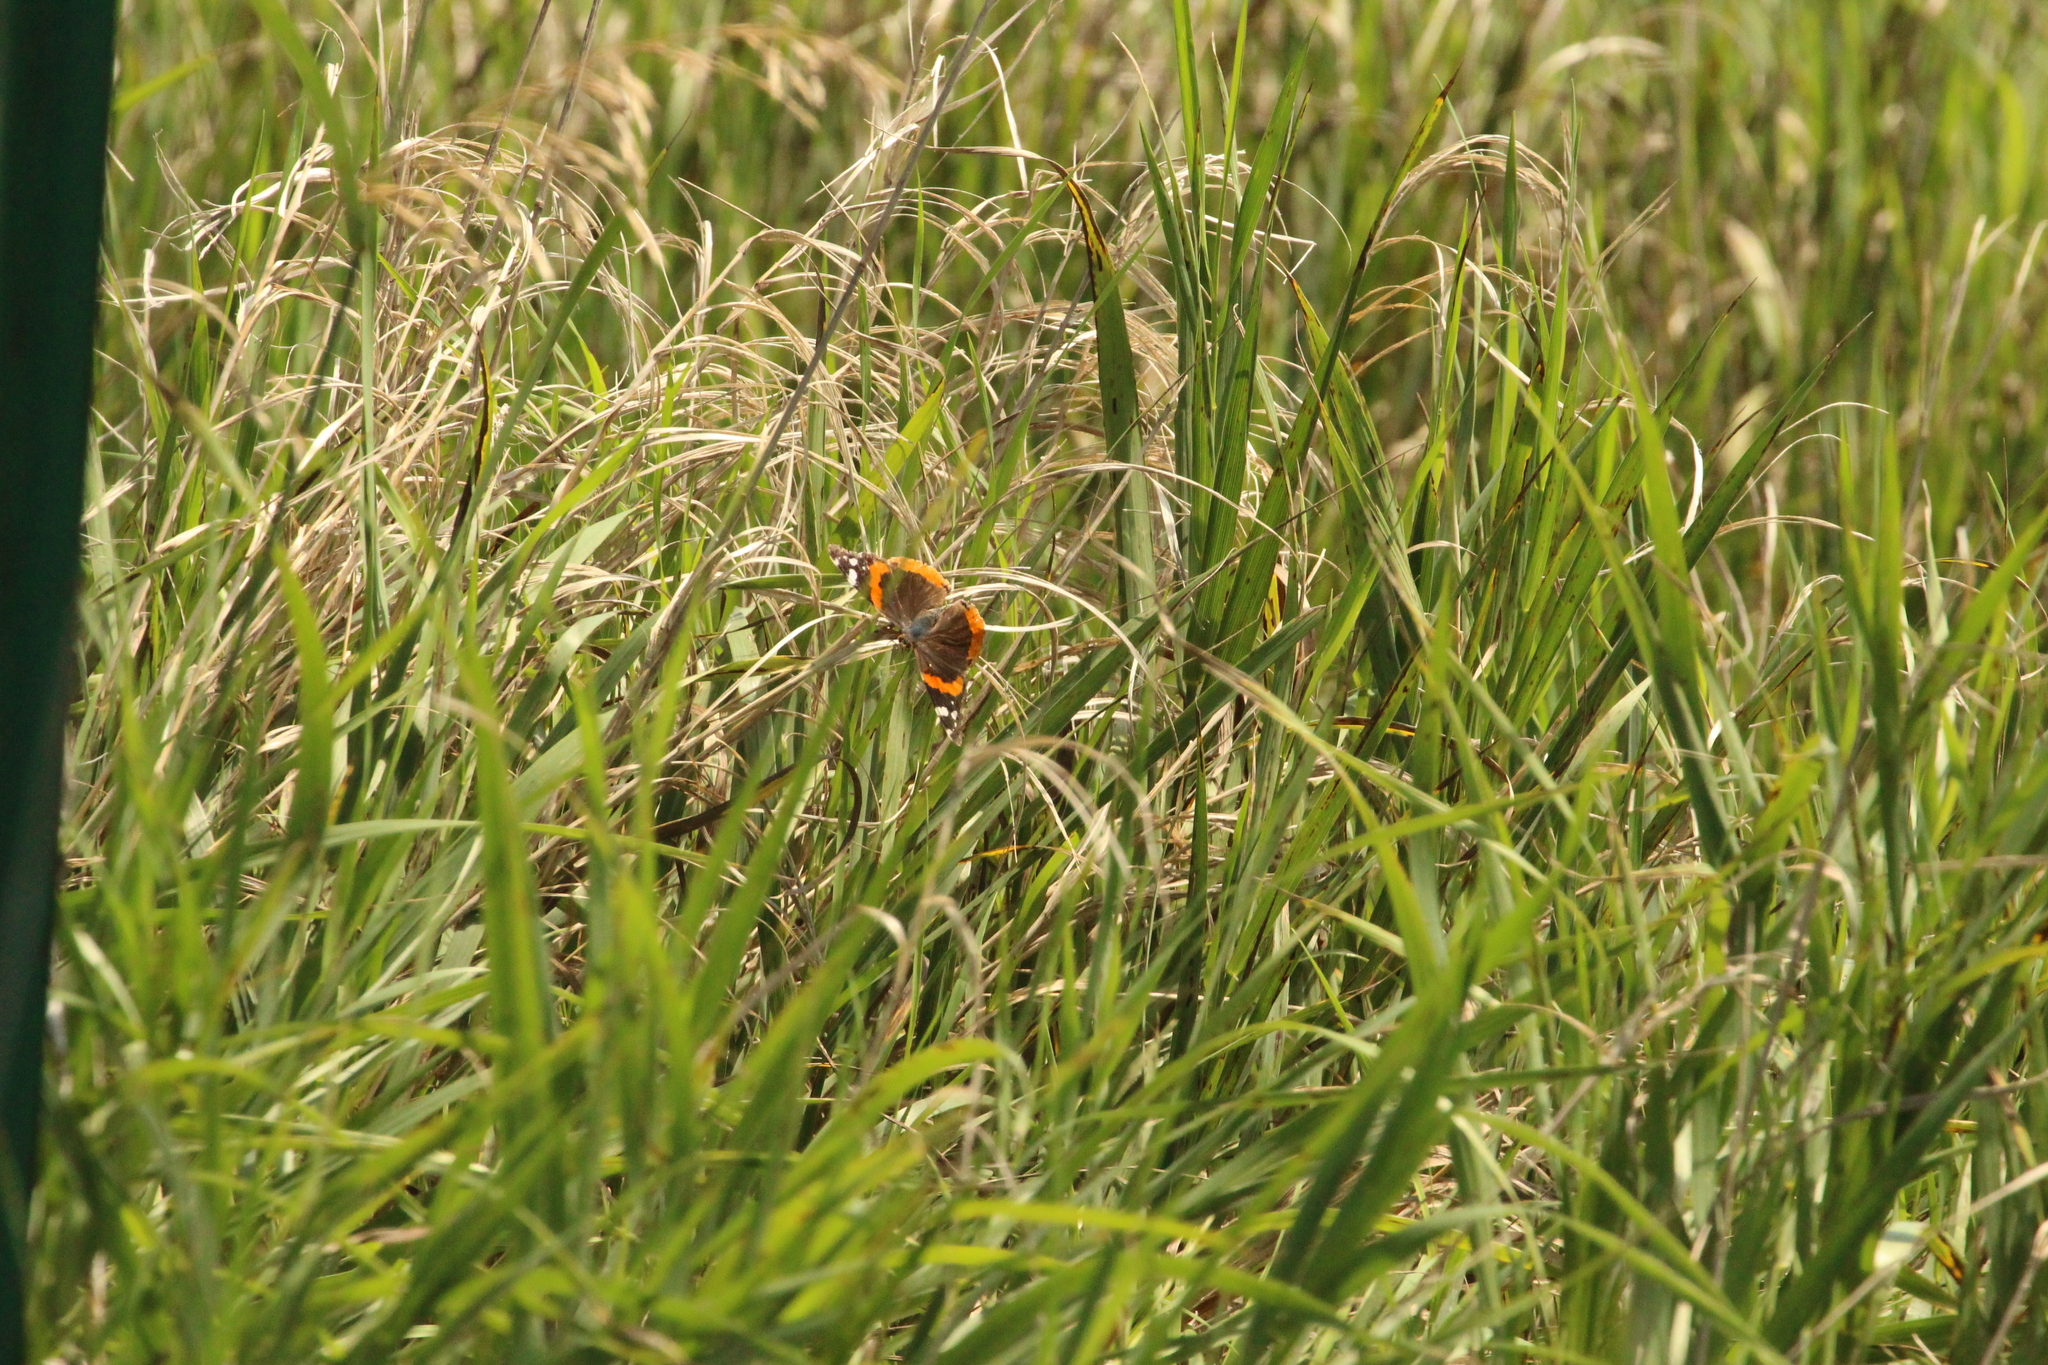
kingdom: Animalia
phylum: Arthropoda
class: Insecta
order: Lepidoptera
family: Nymphalidae
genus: Vanessa
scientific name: Vanessa atalanta
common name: Red admiral
